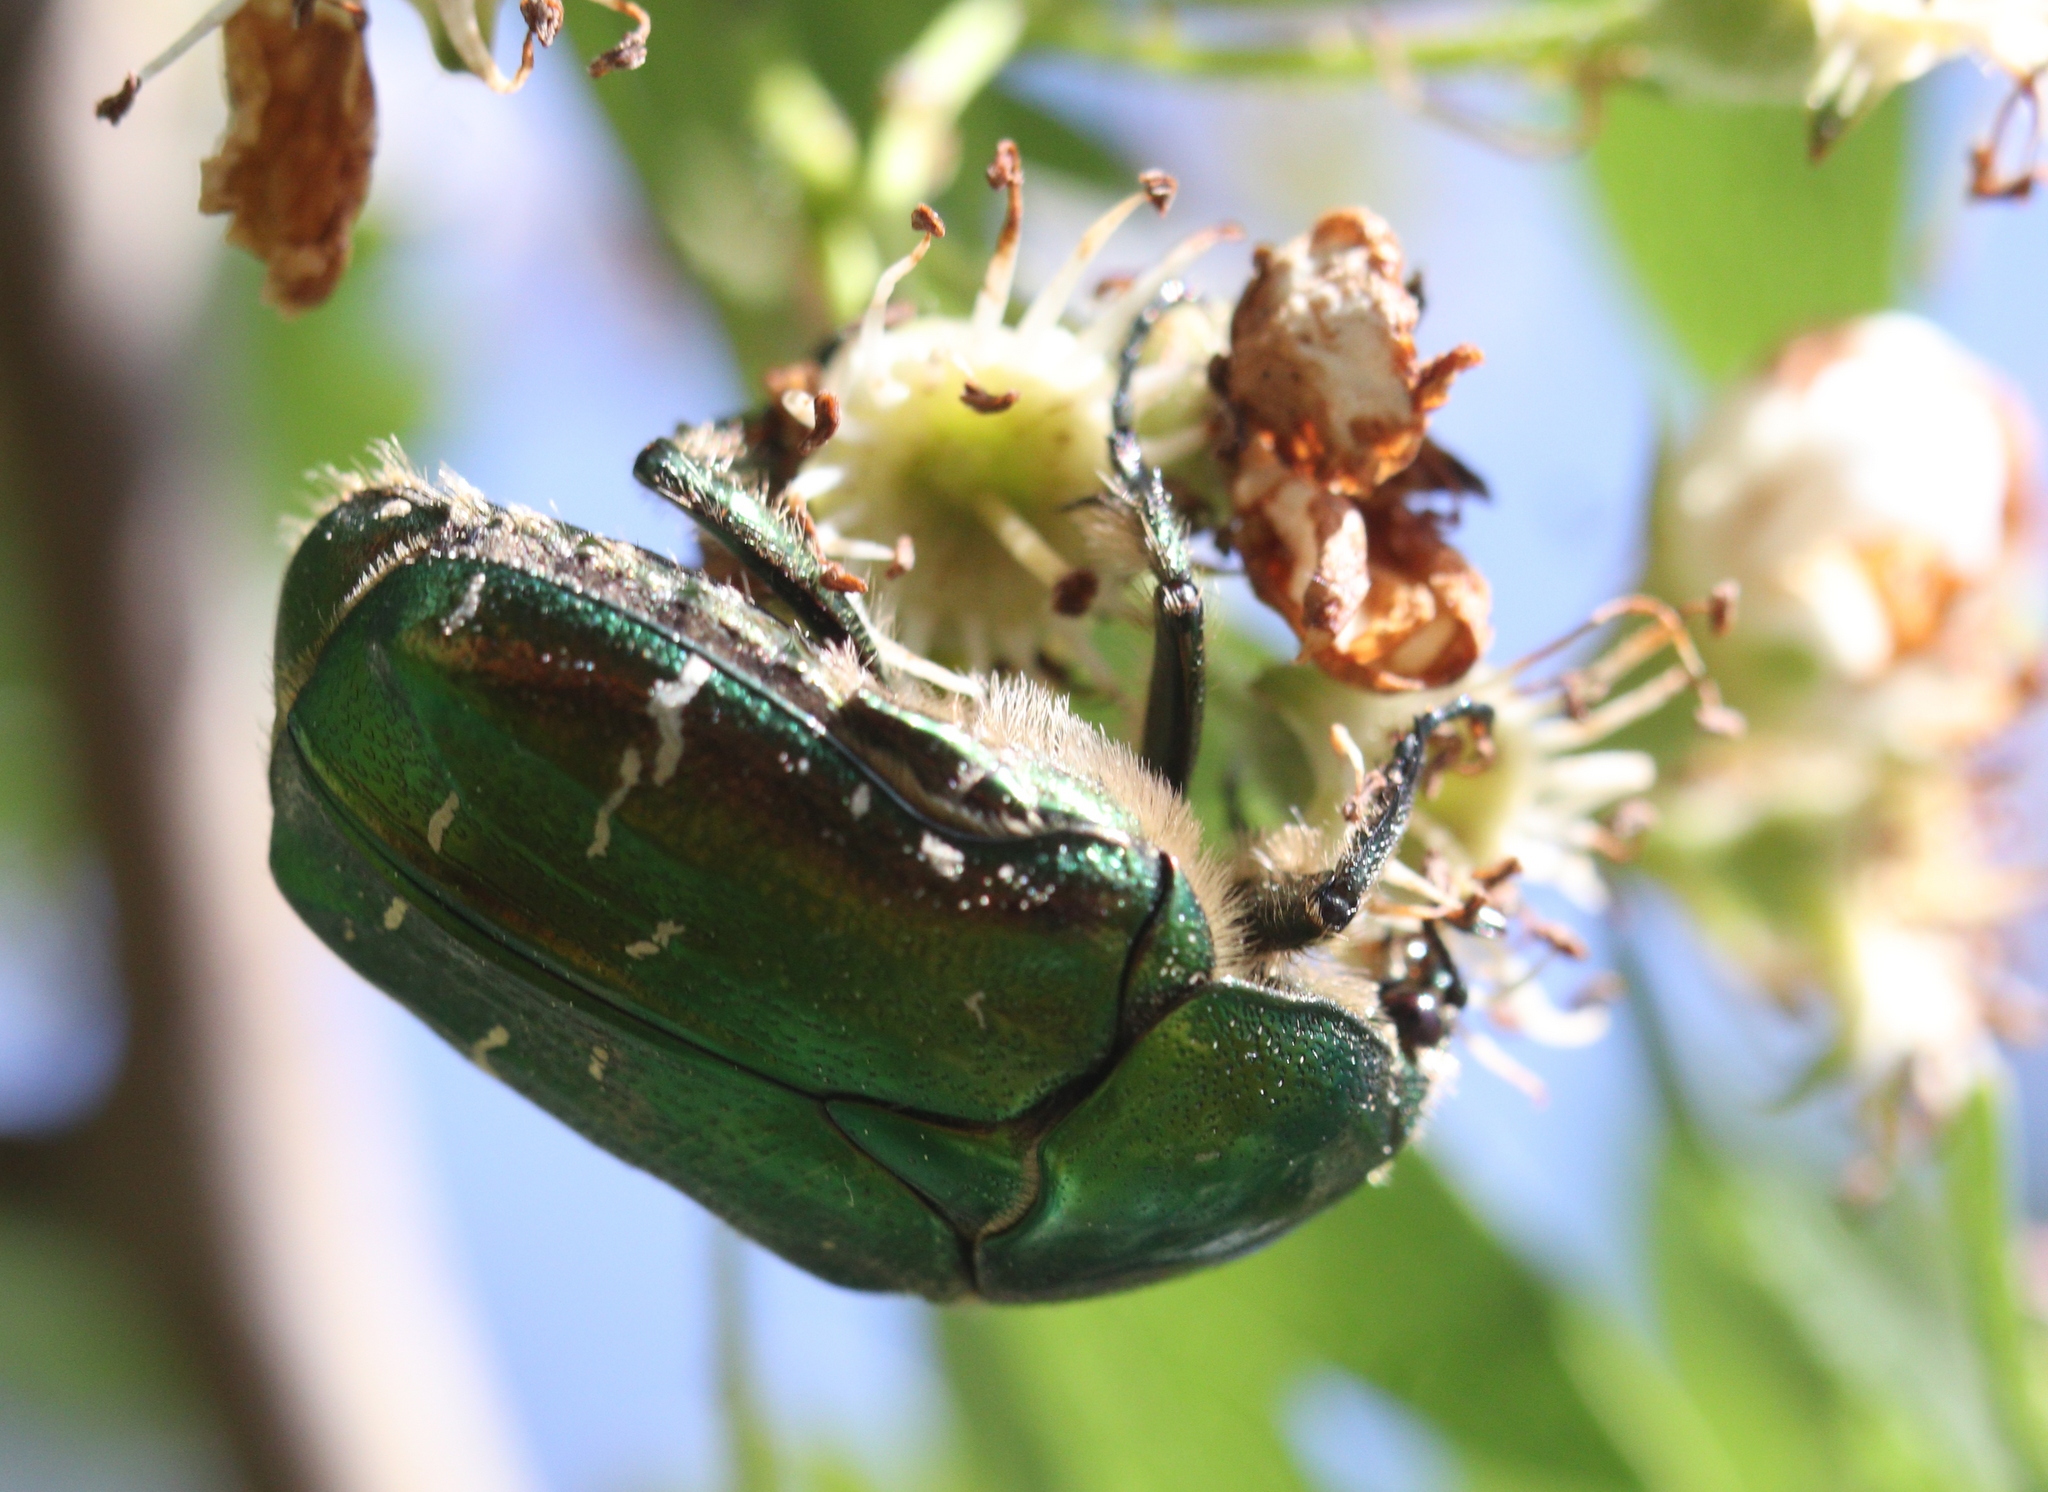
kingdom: Animalia
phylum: Arthropoda
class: Insecta
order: Coleoptera
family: Scarabaeidae
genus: Cetonia
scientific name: Cetonia aurata
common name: Rose chafer
